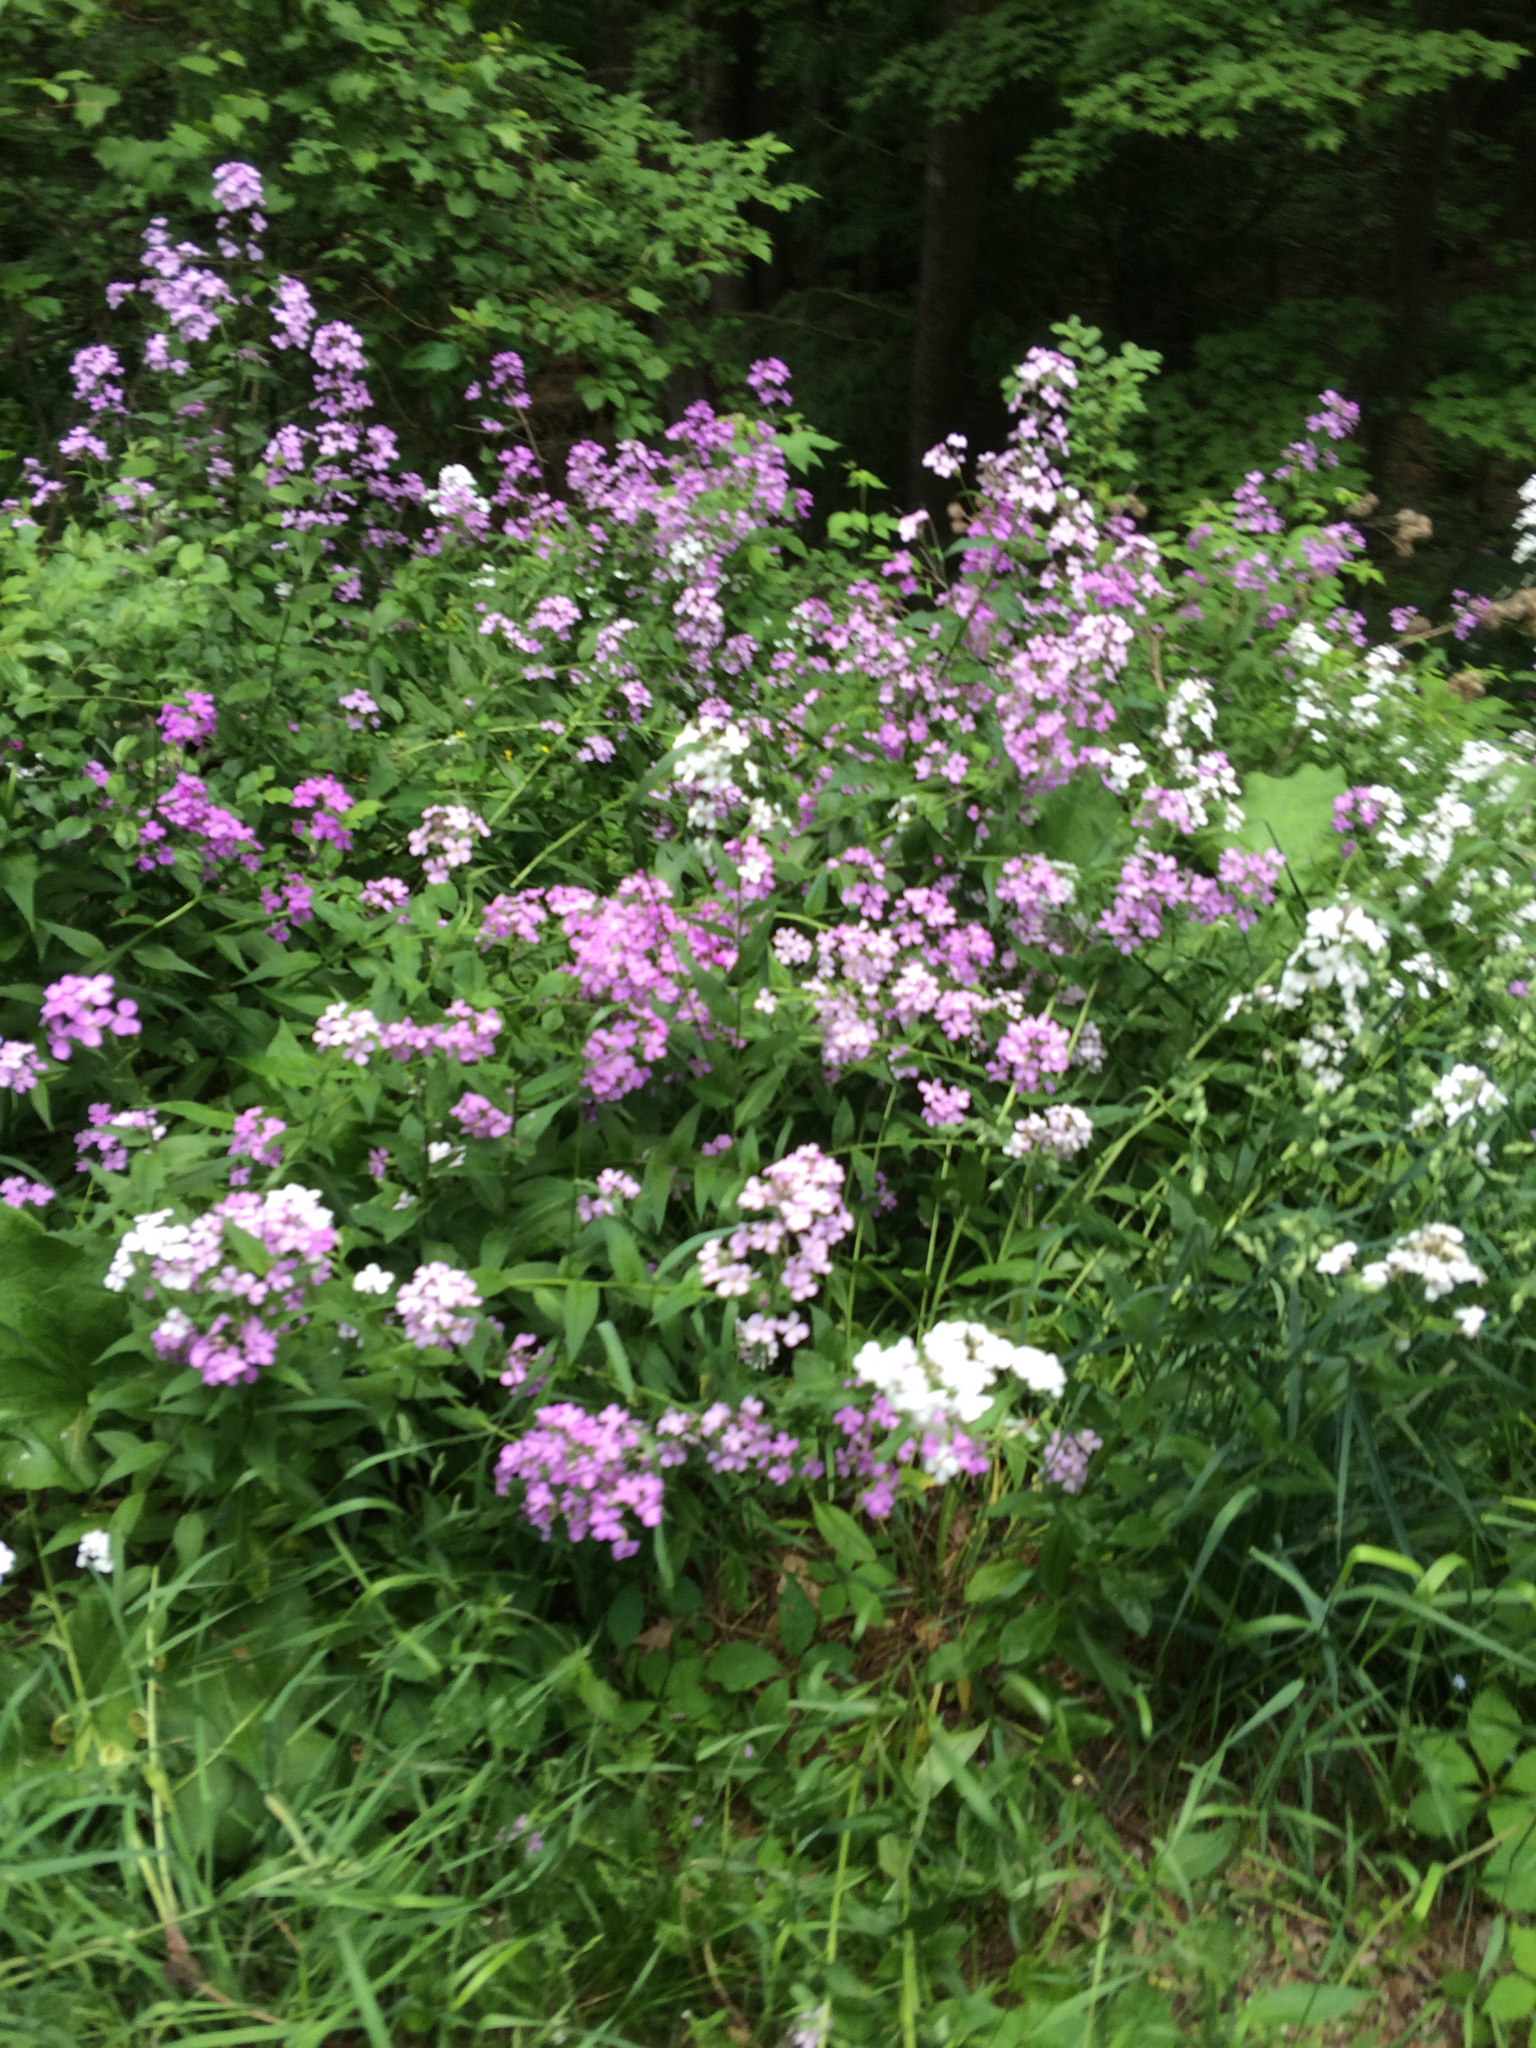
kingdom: Plantae
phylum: Tracheophyta
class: Magnoliopsida
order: Brassicales
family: Brassicaceae
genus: Hesperis
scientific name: Hesperis matronalis
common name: Dame's-violet
